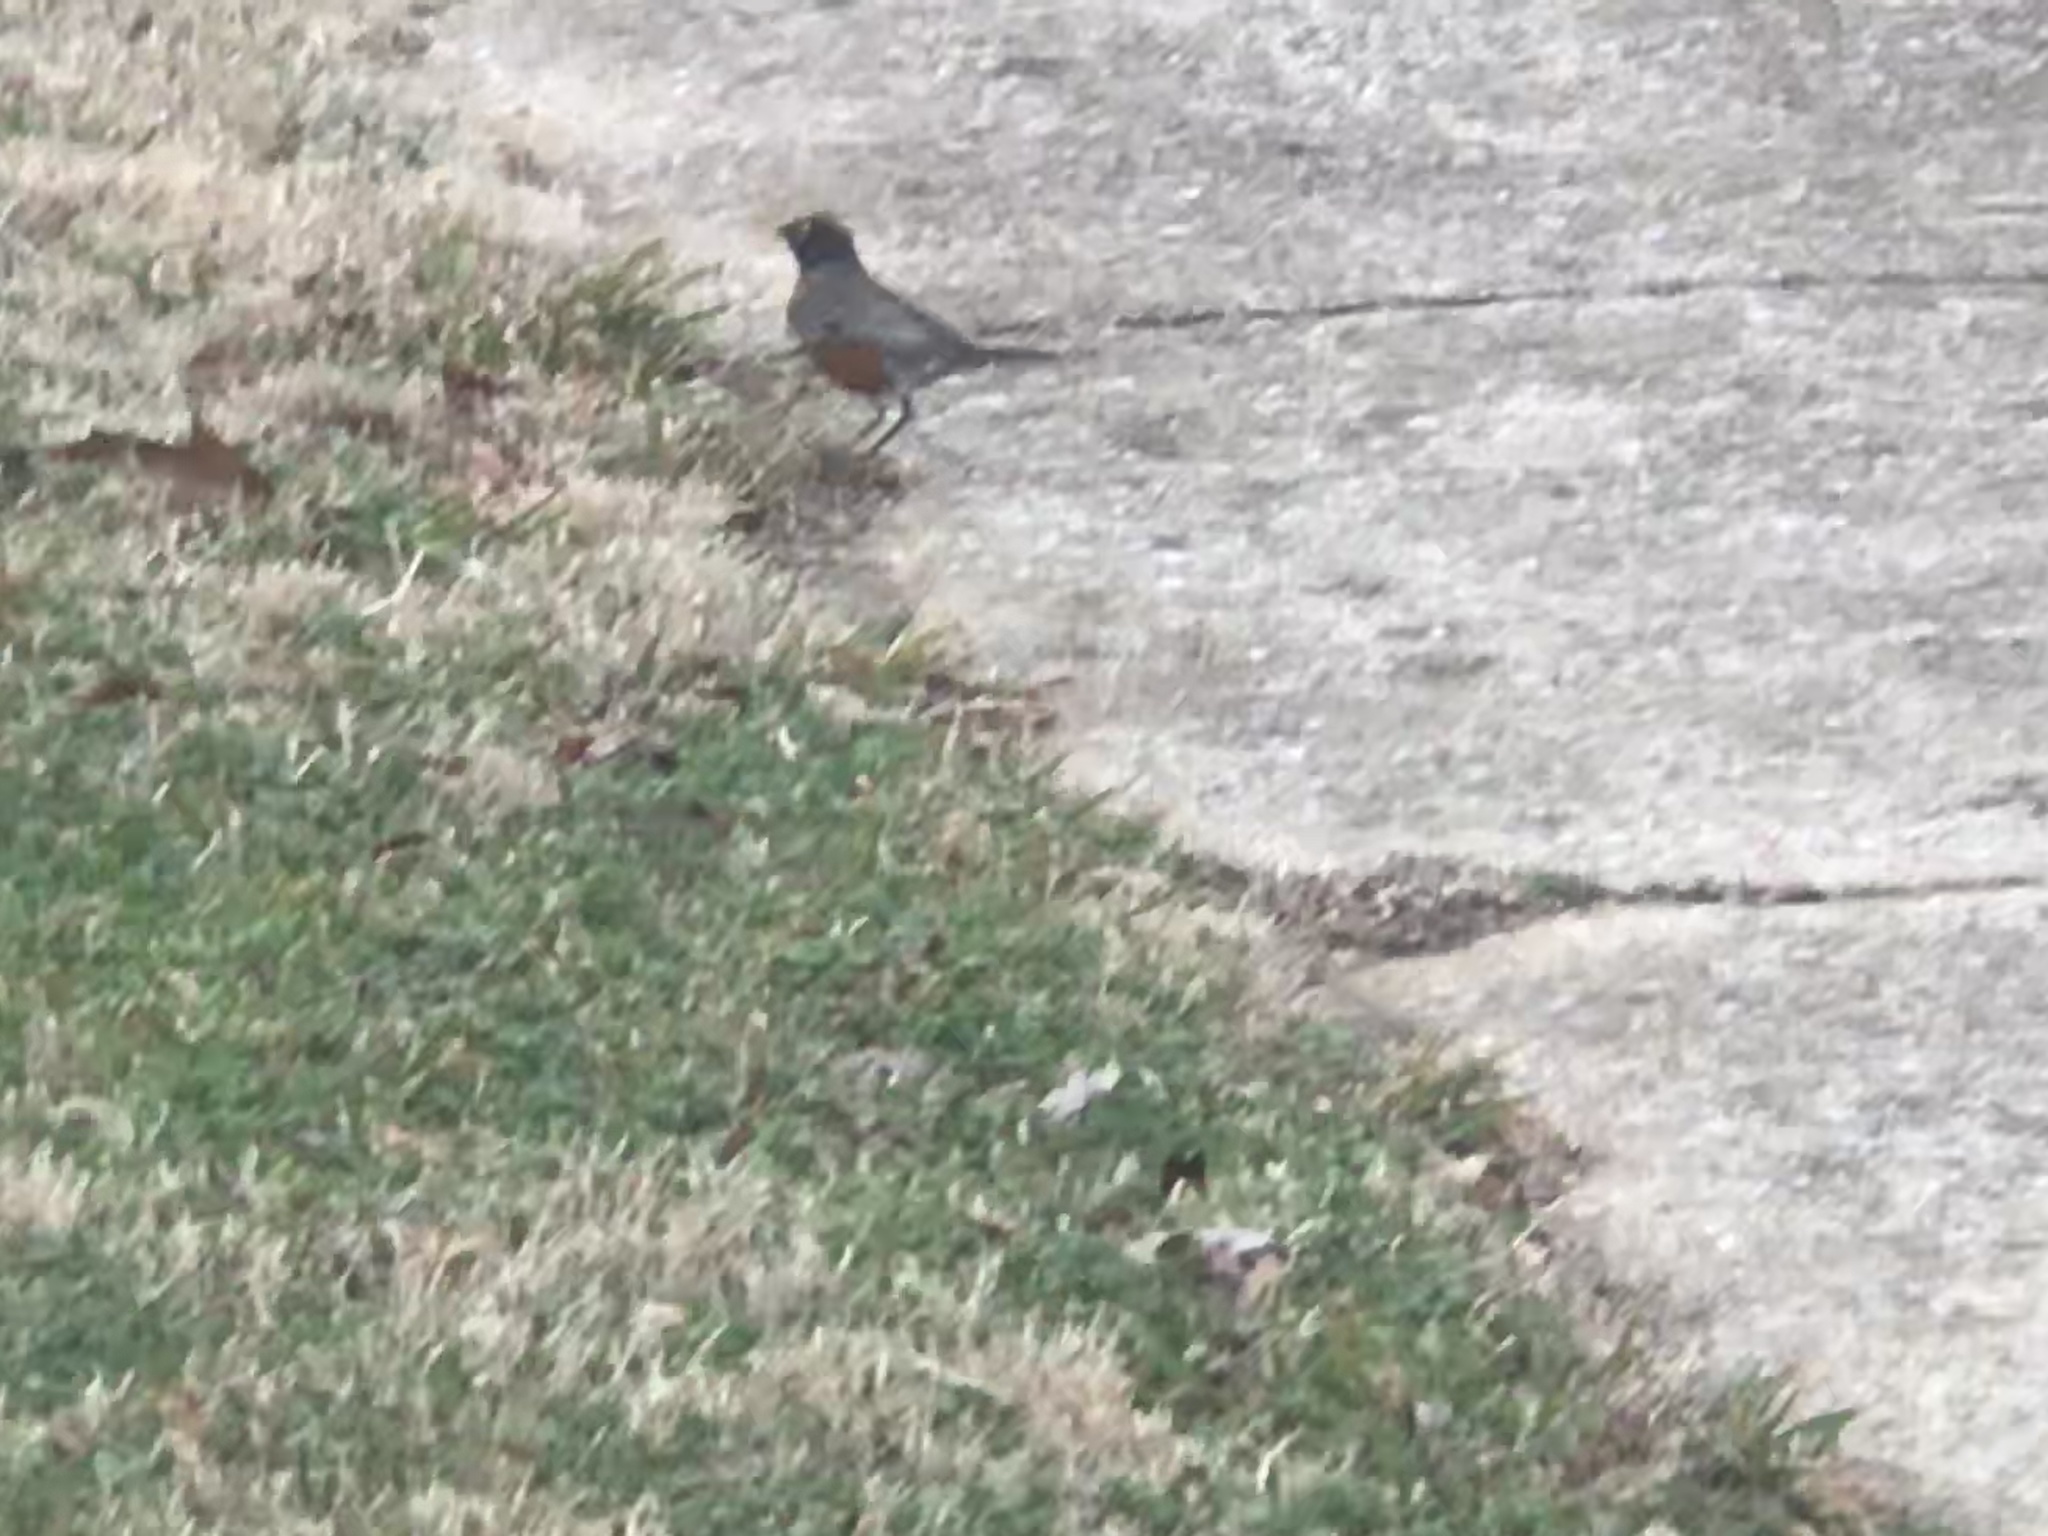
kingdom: Animalia
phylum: Chordata
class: Aves
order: Passeriformes
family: Turdidae
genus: Turdus
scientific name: Turdus migratorius
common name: American robin
